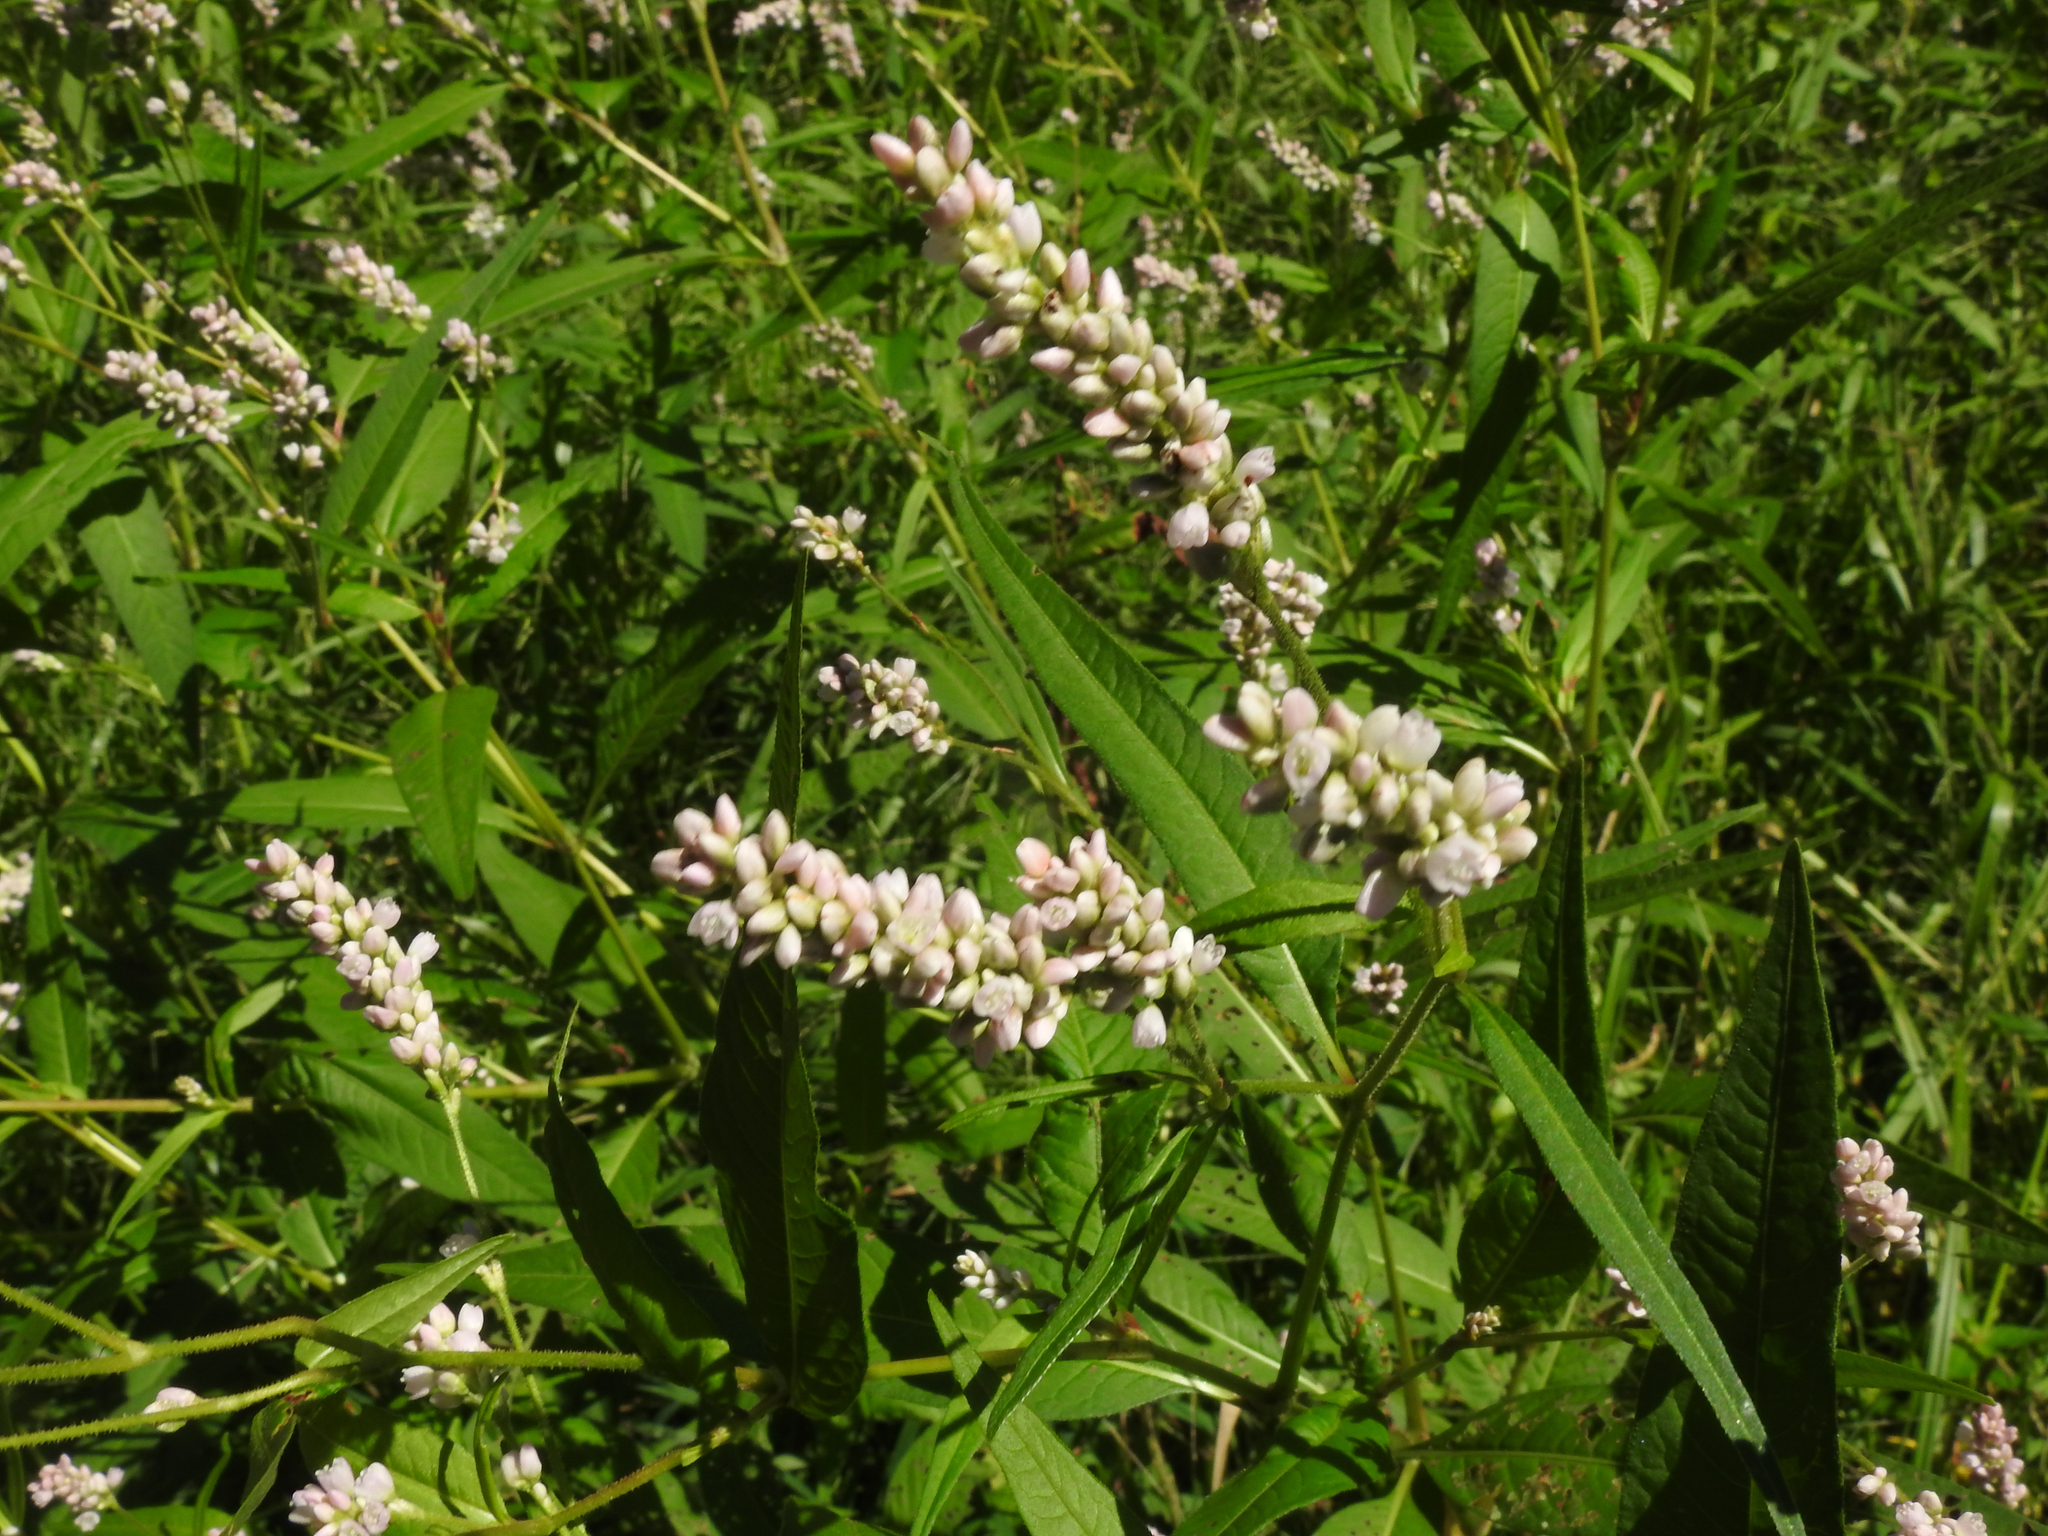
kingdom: Plantae
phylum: Tracheophyta
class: Magnoliopsida
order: Caryophyllales
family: Polygonaceae
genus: Persicaria
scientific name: Persicaria pensylvanica
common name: Pinkweed
